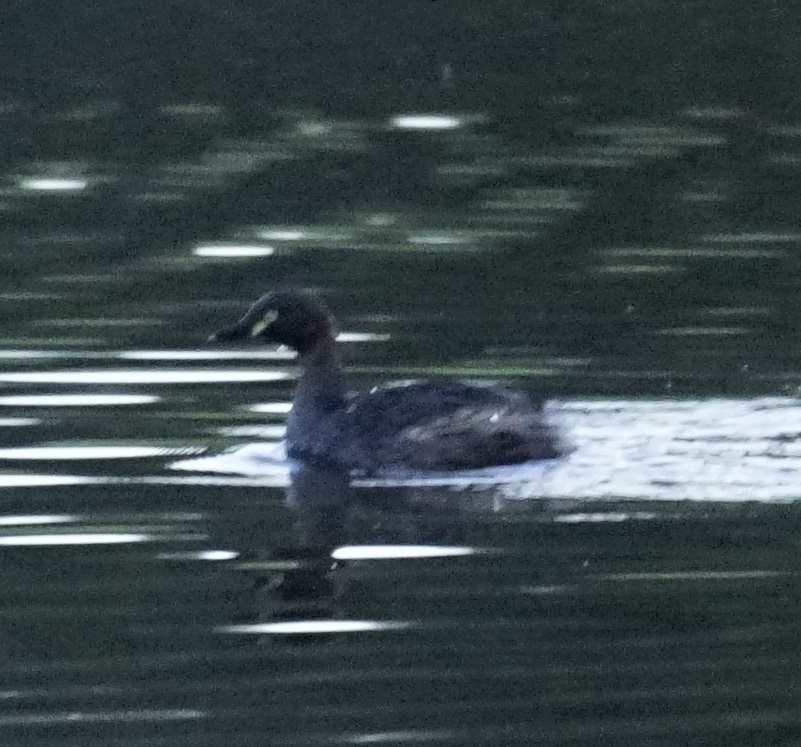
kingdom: Animalia
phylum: Chordata
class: Aves
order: Podicipediformes
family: Podicipedidae
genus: Tachybaptus
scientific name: Tachybaptus novaehollandiae
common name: Australasian grebe
